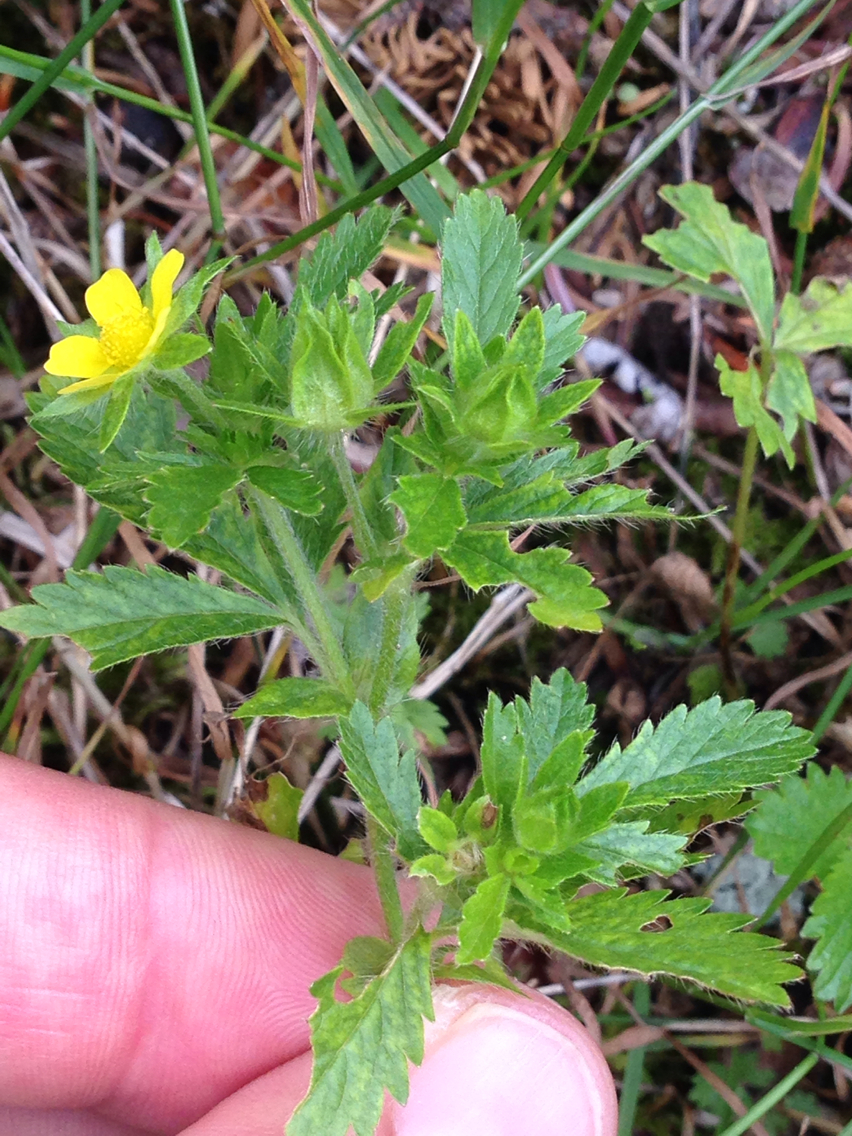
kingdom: Plantae
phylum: Tracheophyta
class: Magnoliopsida
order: Rosales
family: Rosaceae
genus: Potentilla
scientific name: Potentilla norvegica
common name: Ternate-leaved cinquefoil
